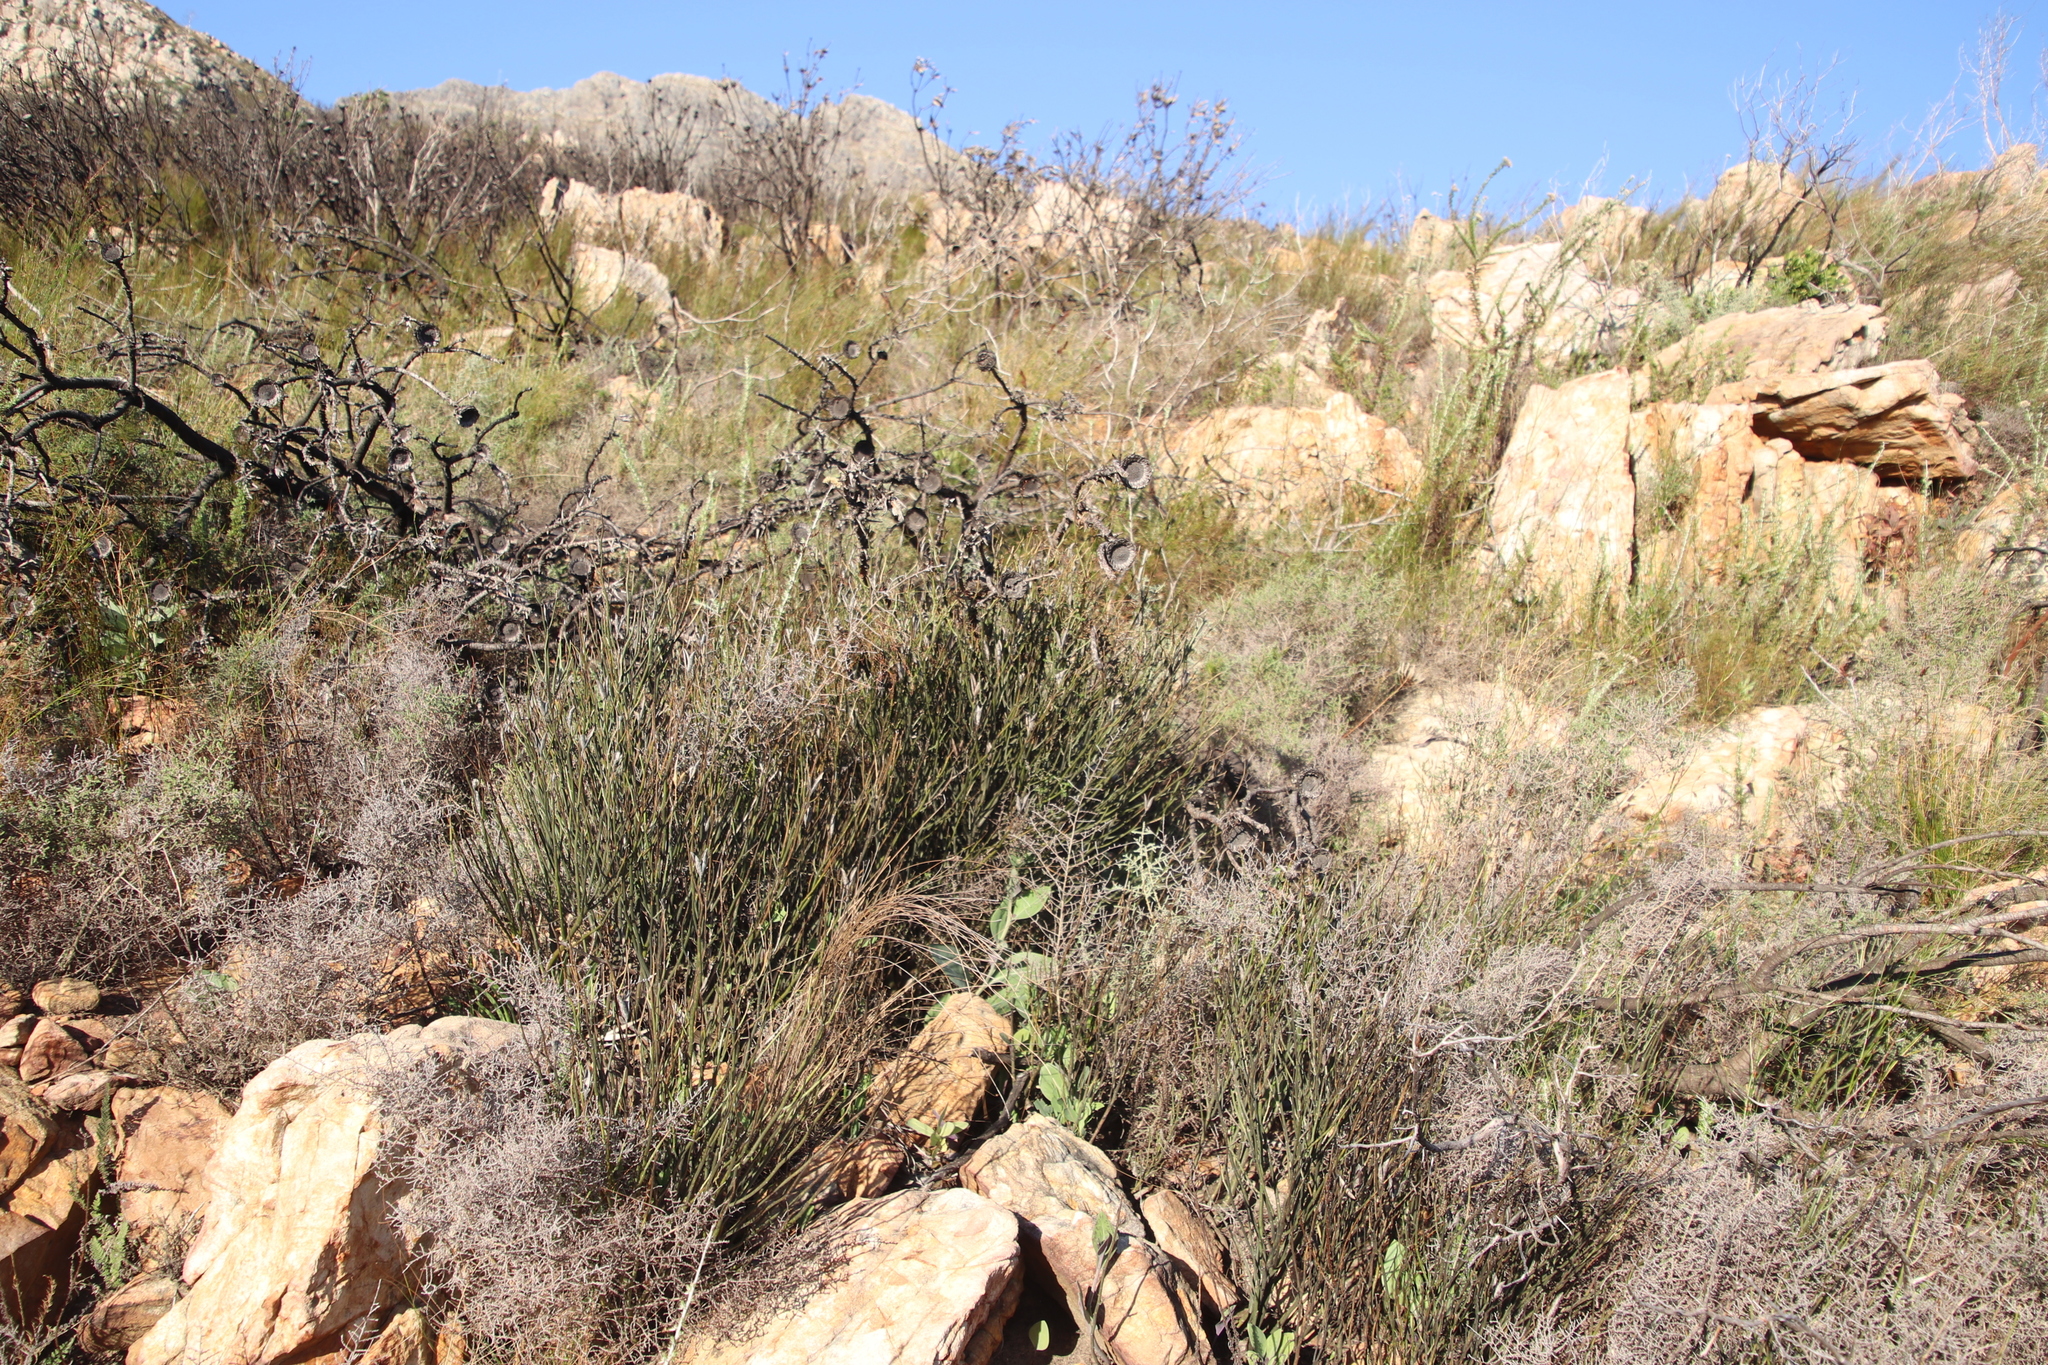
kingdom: Plantae
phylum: Tracheophyta
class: Magnoliopsida
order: Solanales
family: Montiniaceae
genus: Montinia
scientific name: Montinia caryophyllacea
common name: Wild clove-bush
